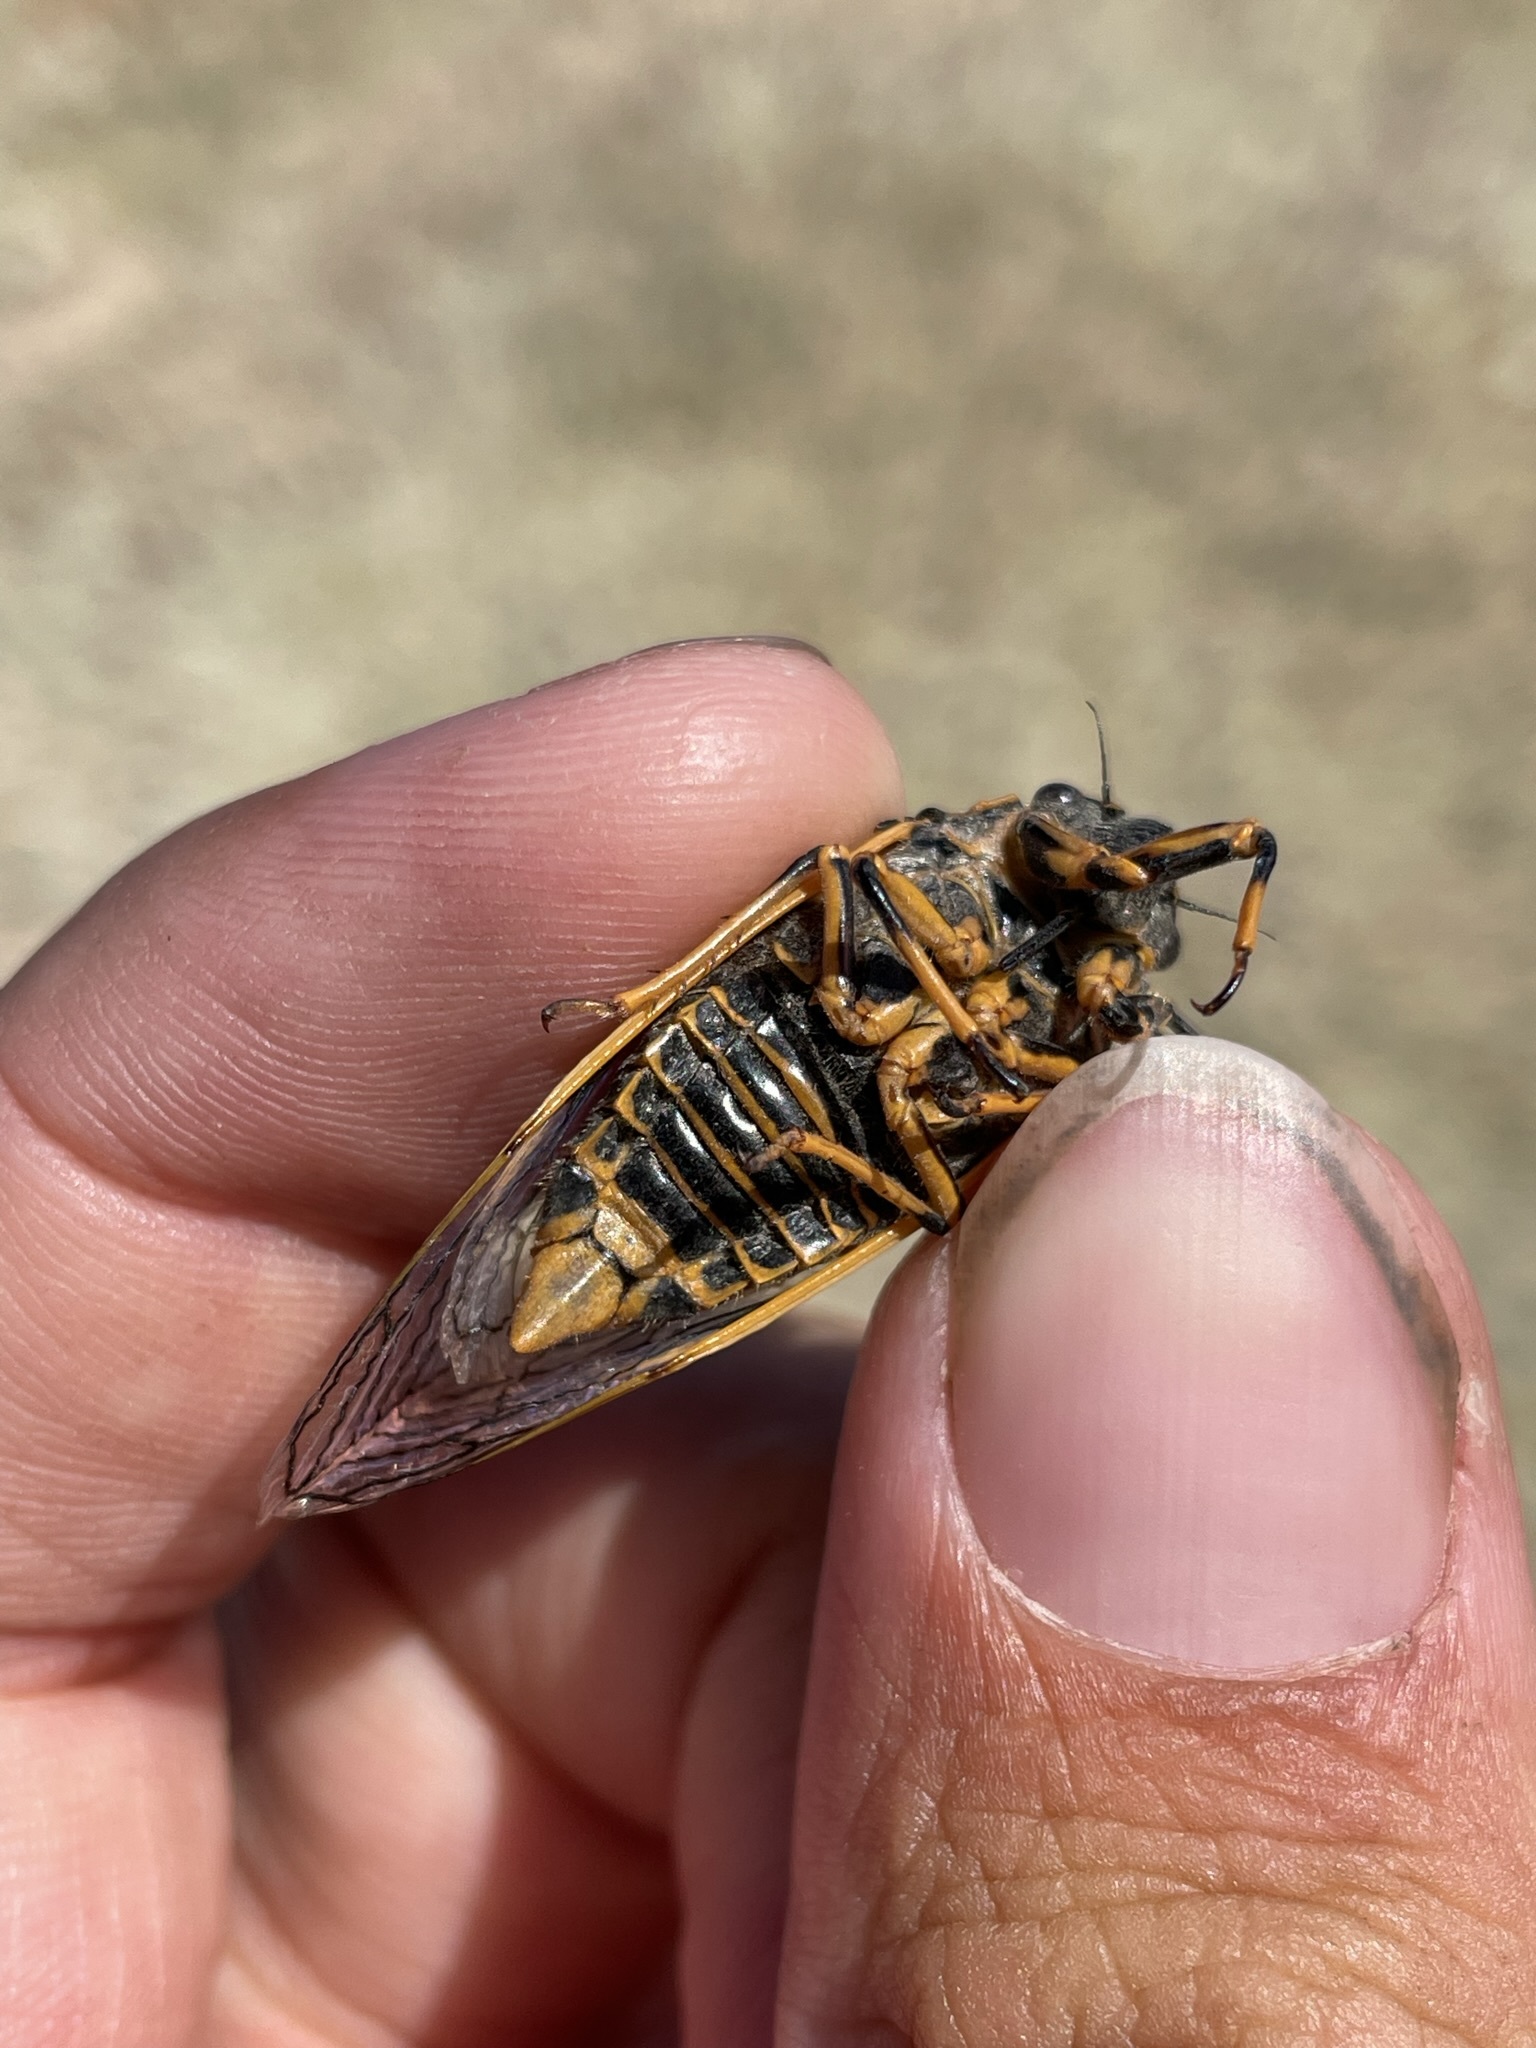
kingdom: Animalia
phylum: Arthropoda
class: Insecta
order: Hemiptera
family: Cicadidae
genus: Okanagana
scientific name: Okanagana gibbera
